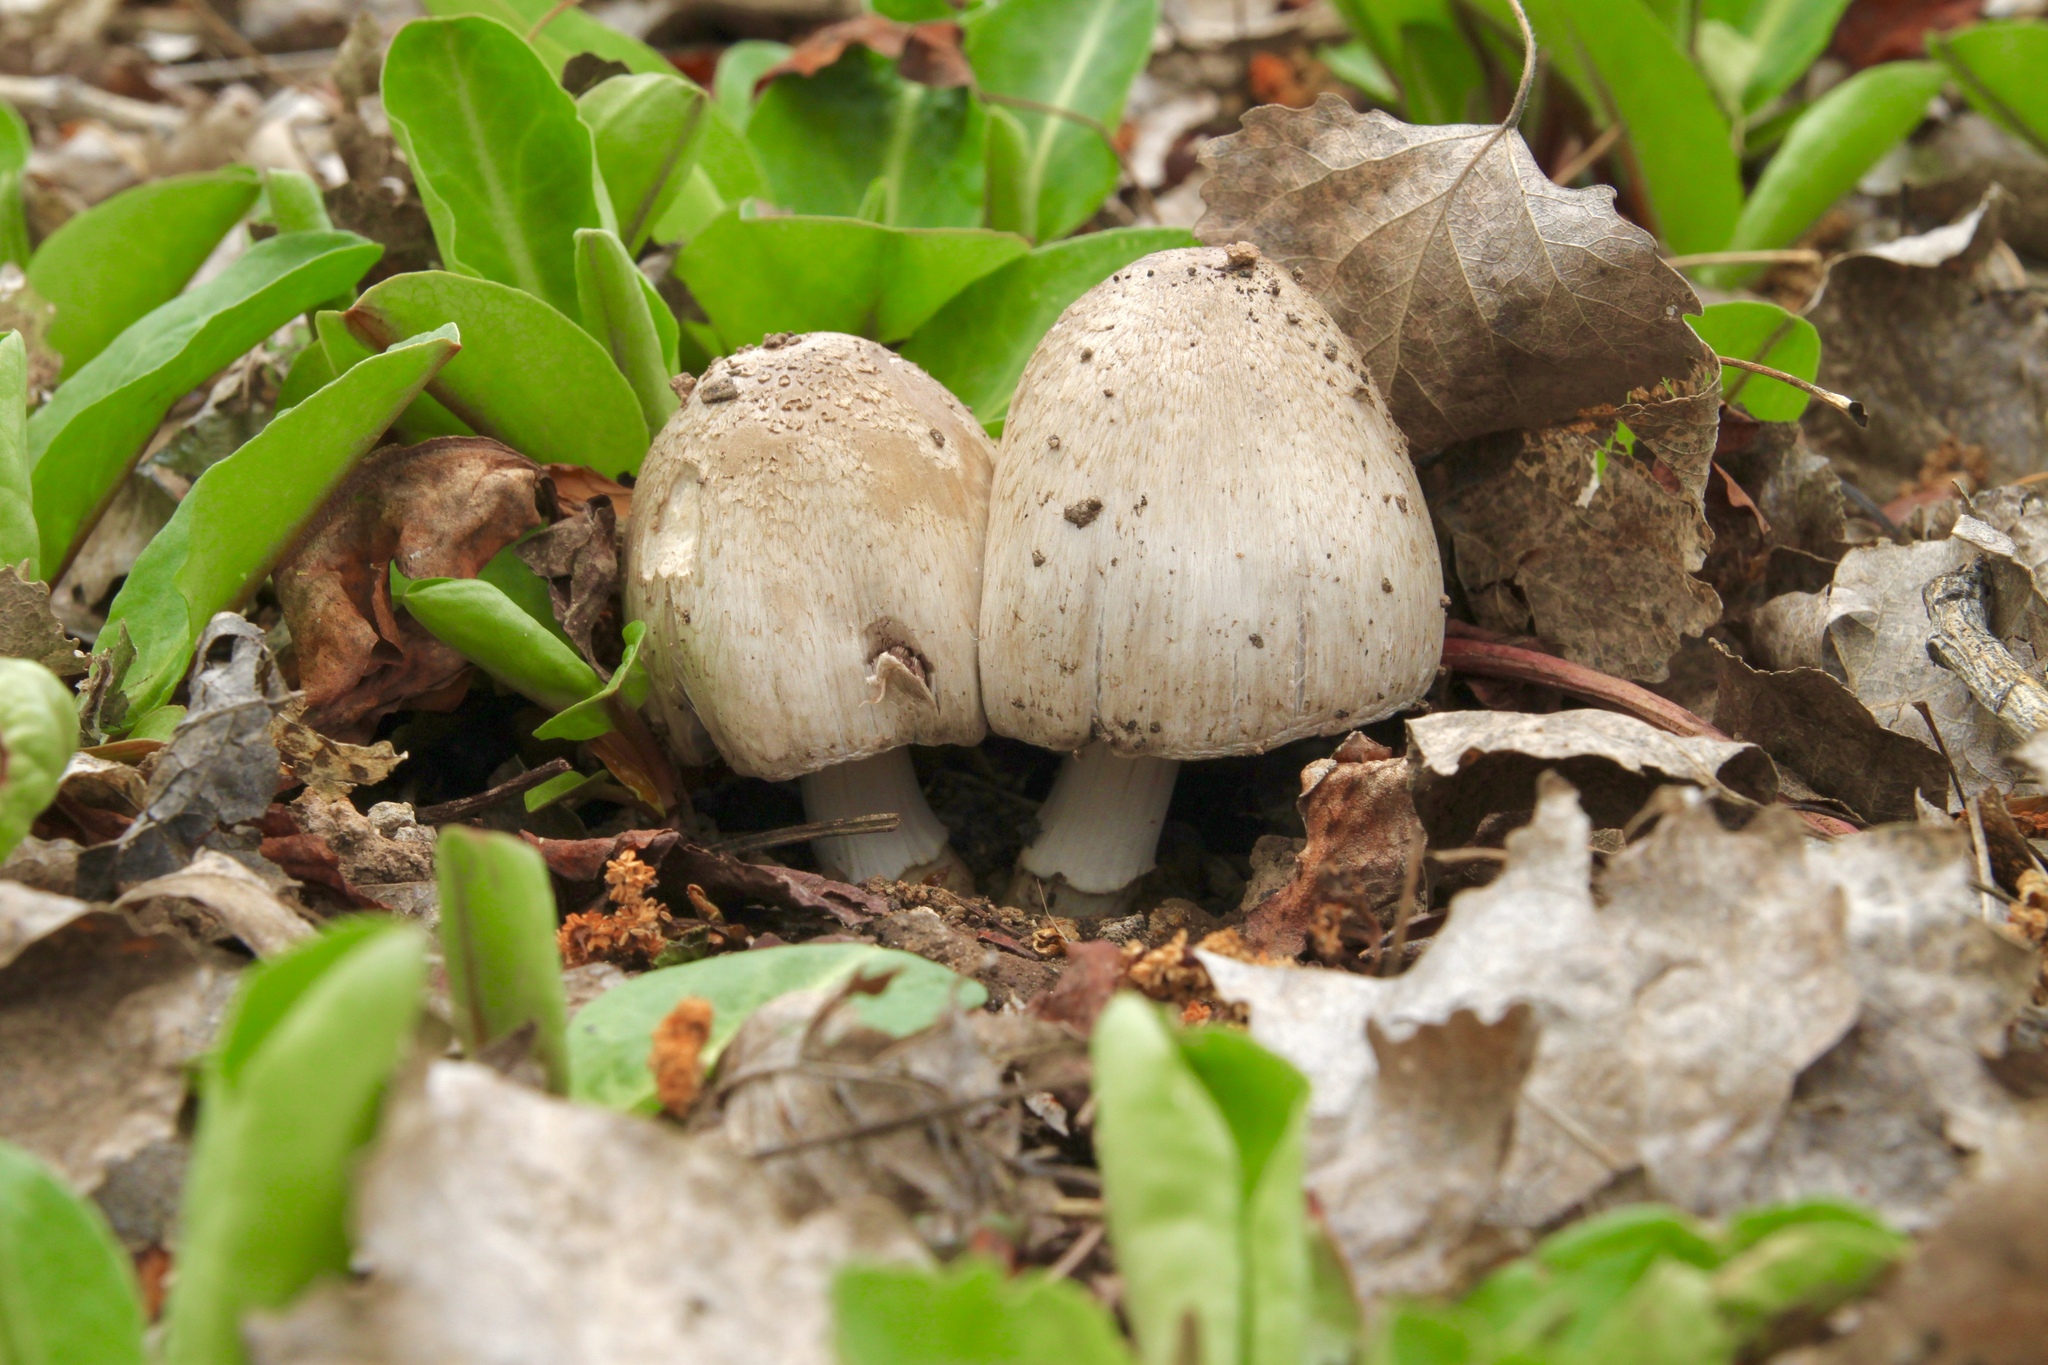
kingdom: Fungi
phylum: Basidiomycota
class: Agaricomycetes
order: Agaricales
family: Psathyrellaceae
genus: Coprinopsis
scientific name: Coprinopsis atramentaria
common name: Common ink-cap
